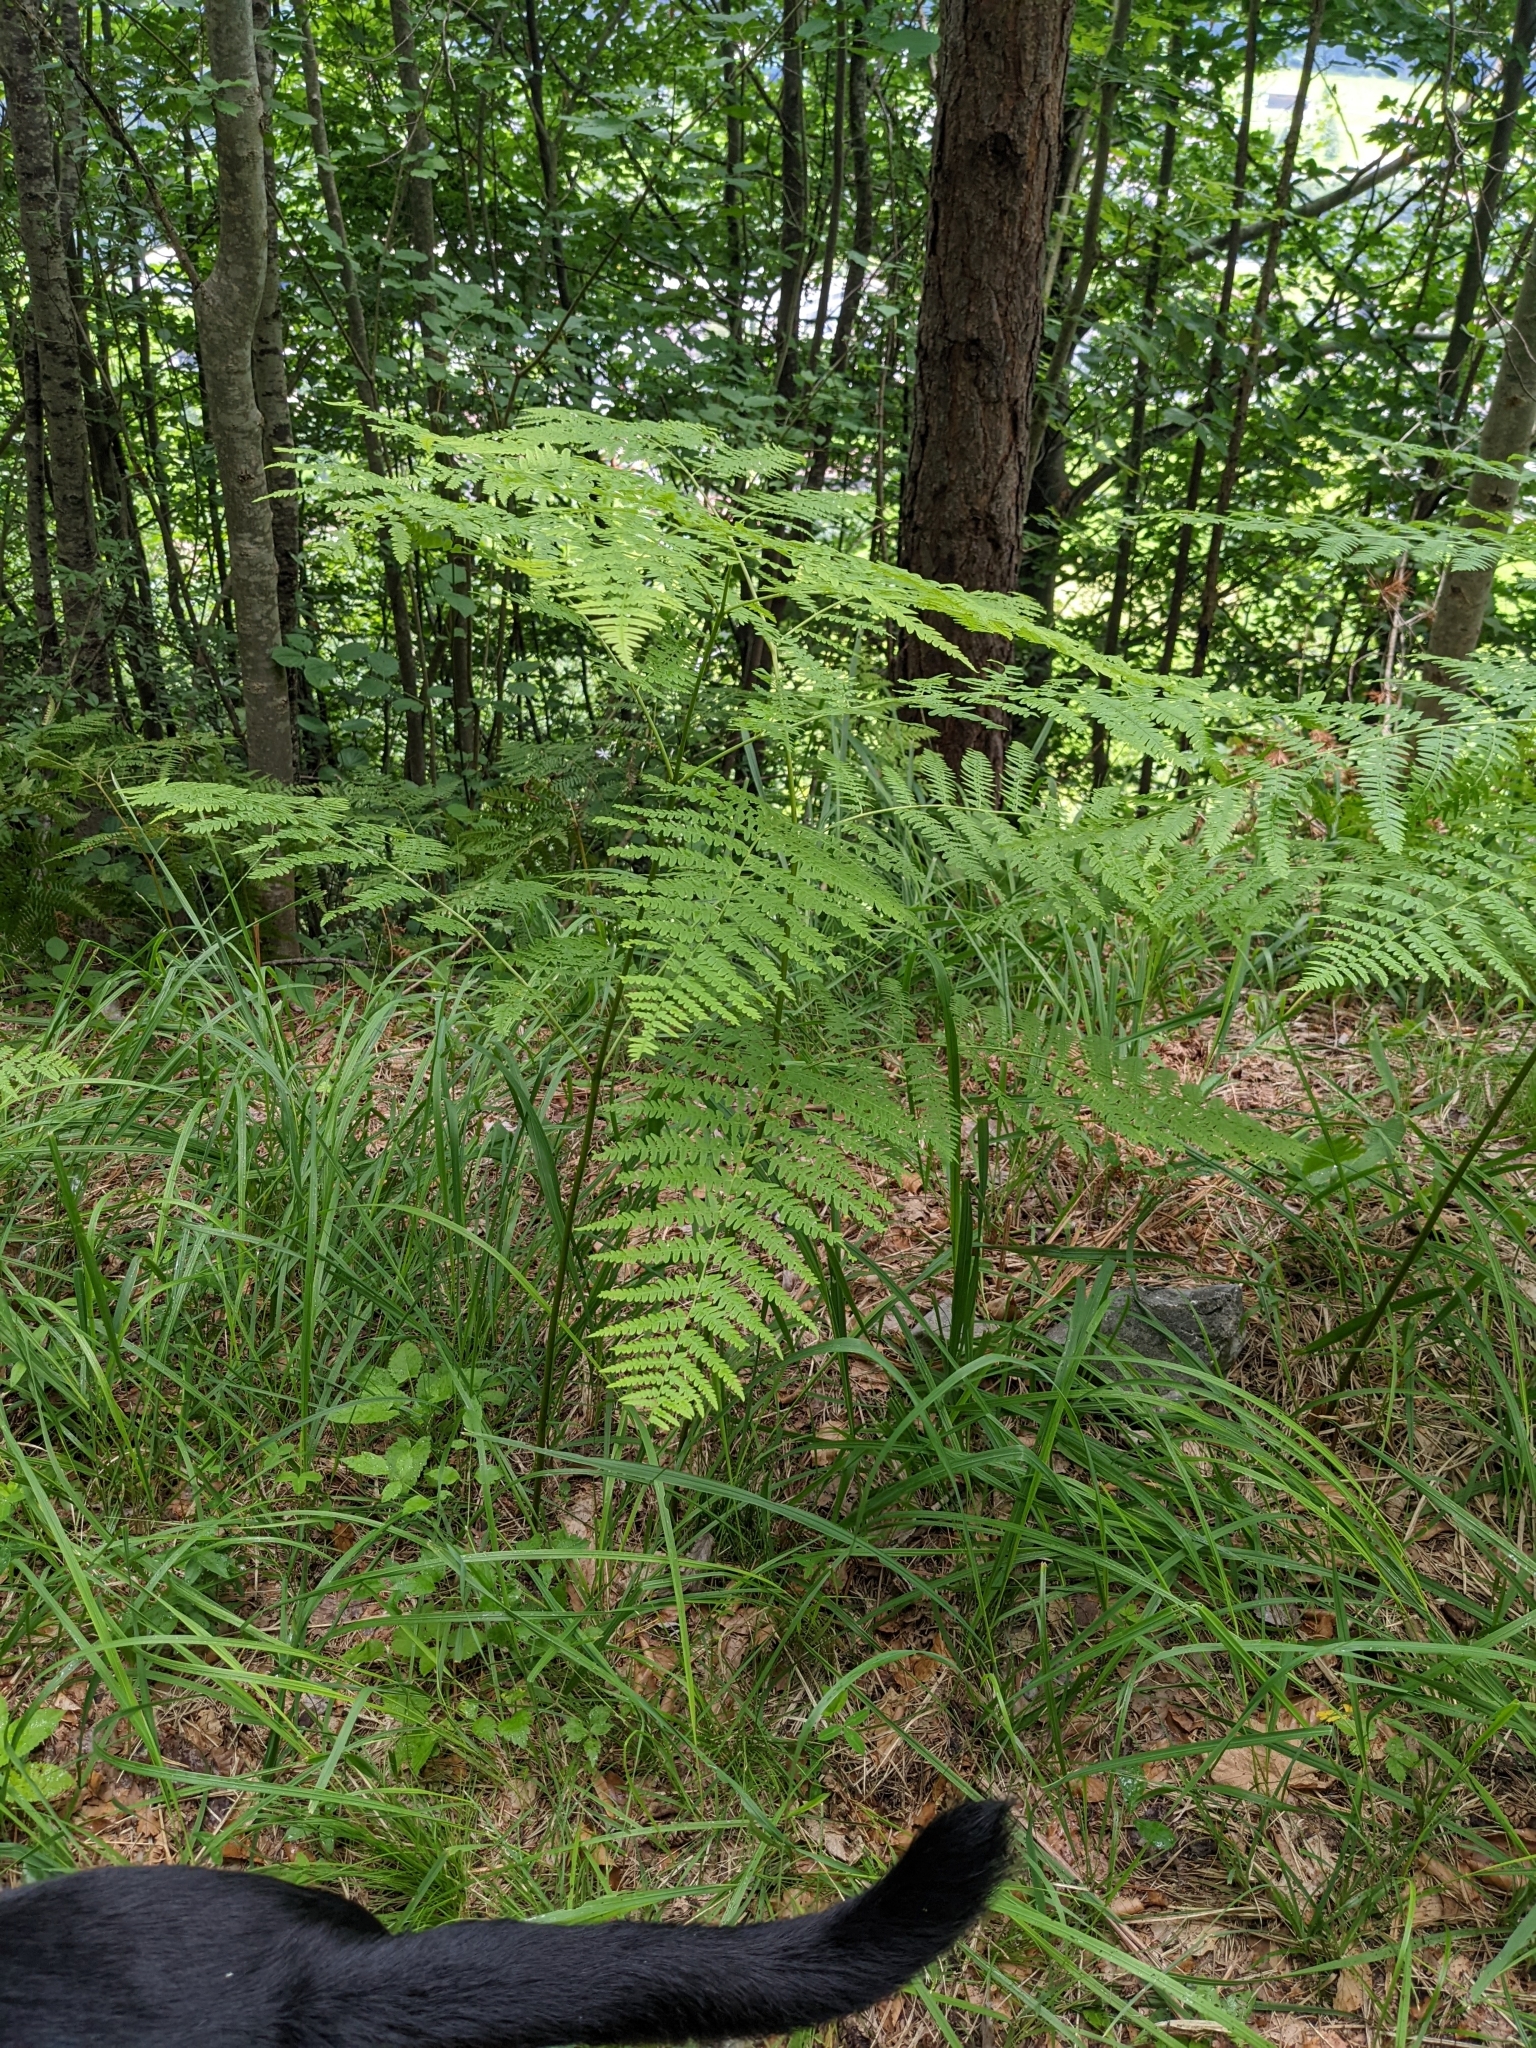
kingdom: Plantae
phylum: Tracheophyta
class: Polypodiopsida
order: Polypodiales
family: Dennstaedtiaceae
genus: Pteridium
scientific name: Pteridium aquilinum
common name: Bracken
